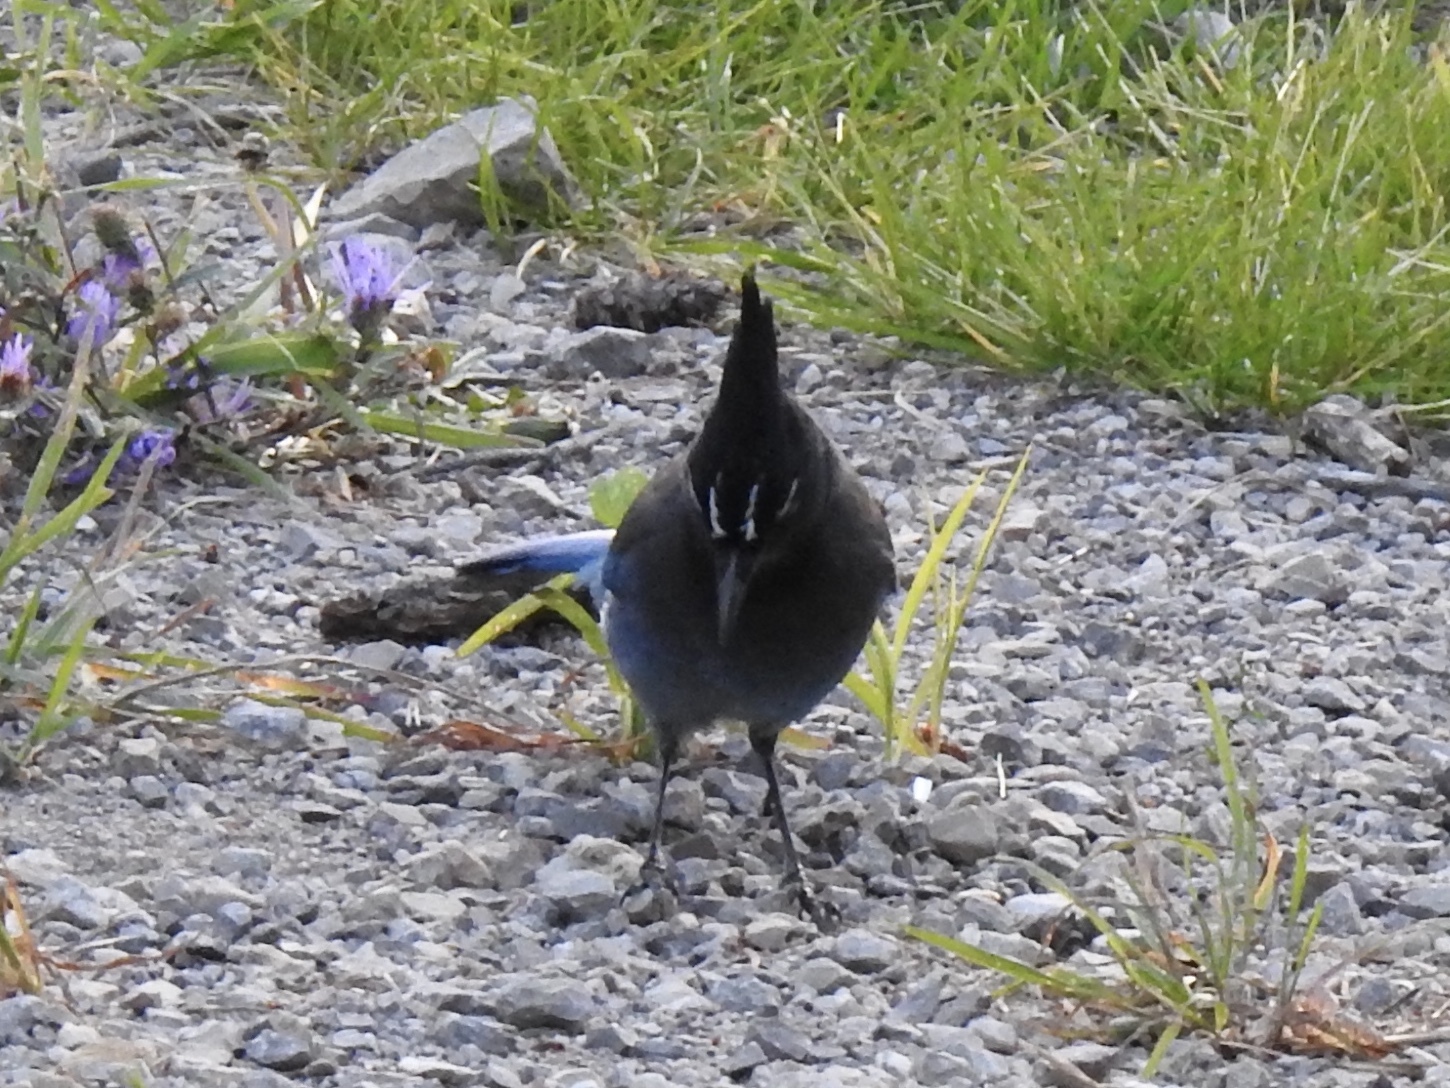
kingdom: Animalia
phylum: Chordata
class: Aves
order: Passeriformes
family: Corvidae
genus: Cyanocitta
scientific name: Cyanocitta stelleri
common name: Steller's jay
